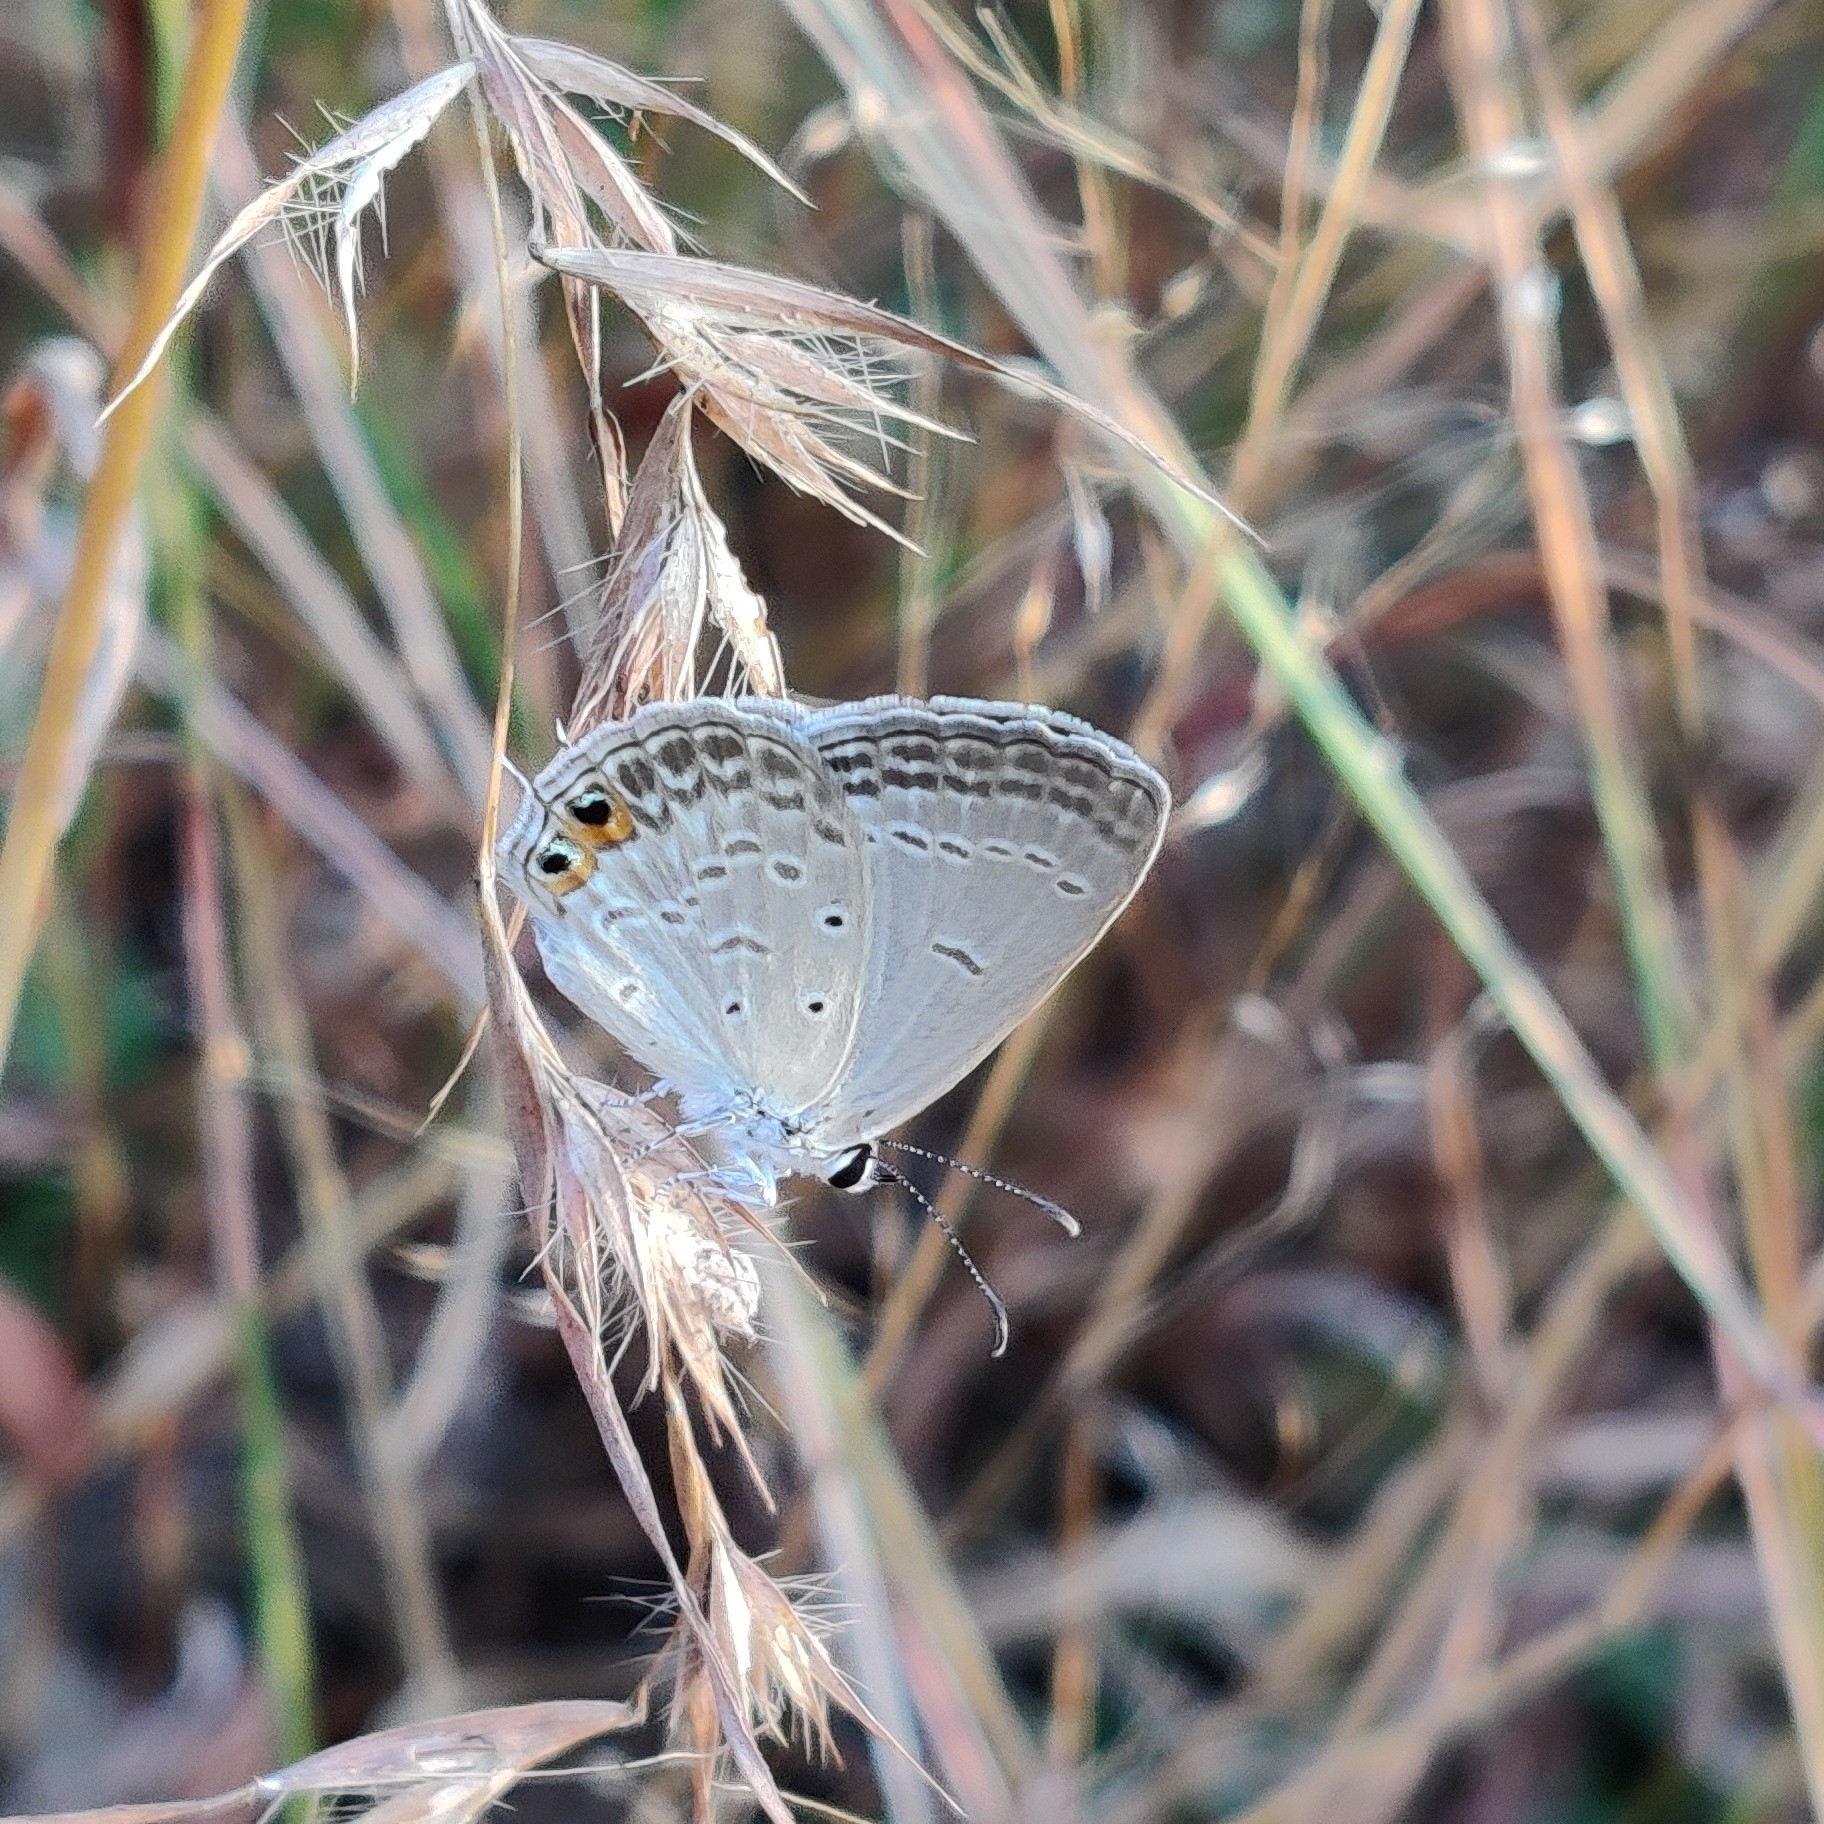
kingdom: Animalia
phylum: Arthropoda
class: Insecta
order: Lepidoptera
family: Lycaenidae
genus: Euchrysops
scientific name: Euchrysops cnejus
